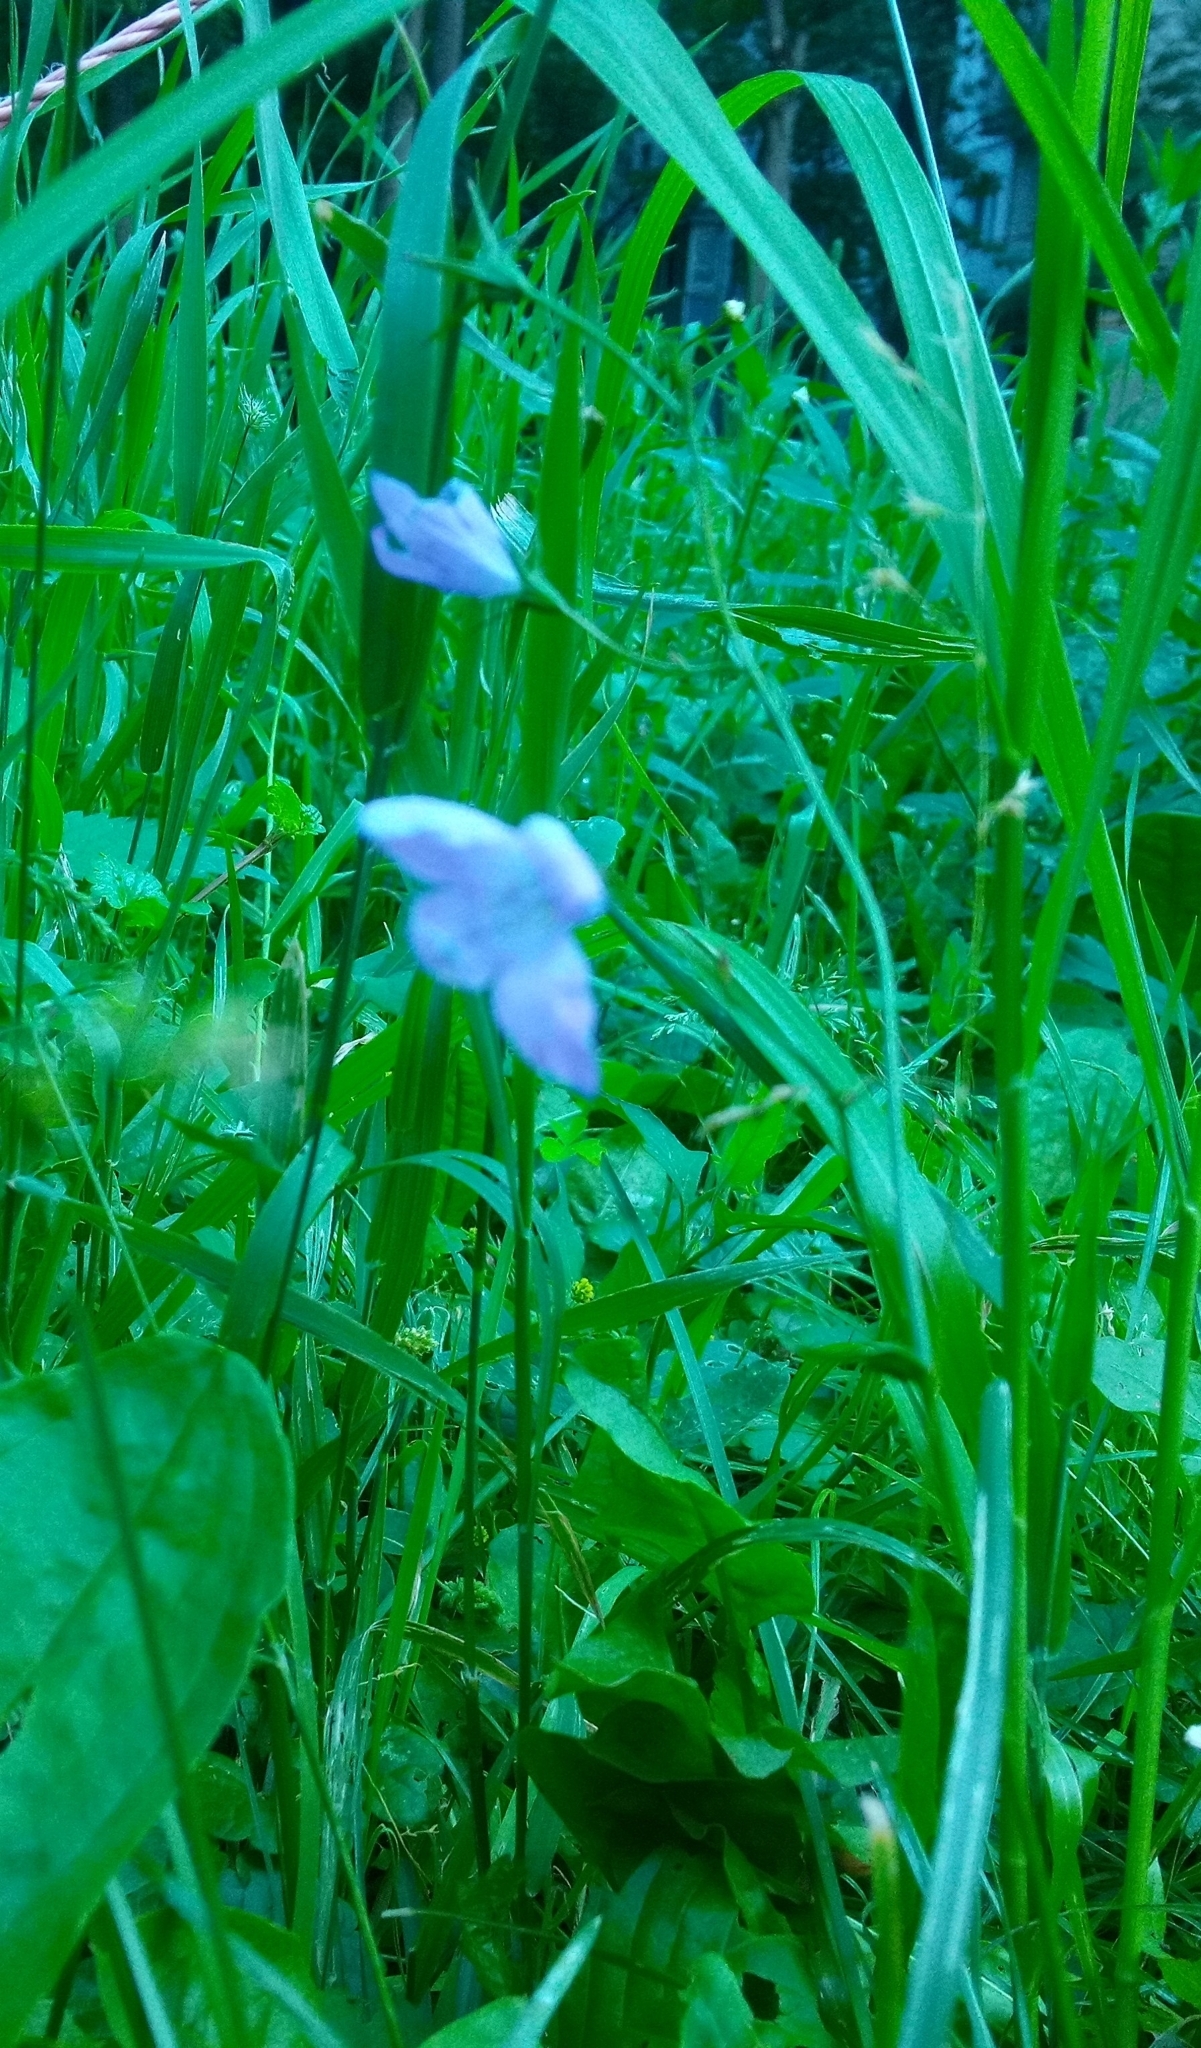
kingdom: Plantae
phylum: Tracheophyta
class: Magnoliopsida
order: Asterales
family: Campanulaceae
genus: Campanula
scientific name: Campanula patula
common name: Spreading bellflower
